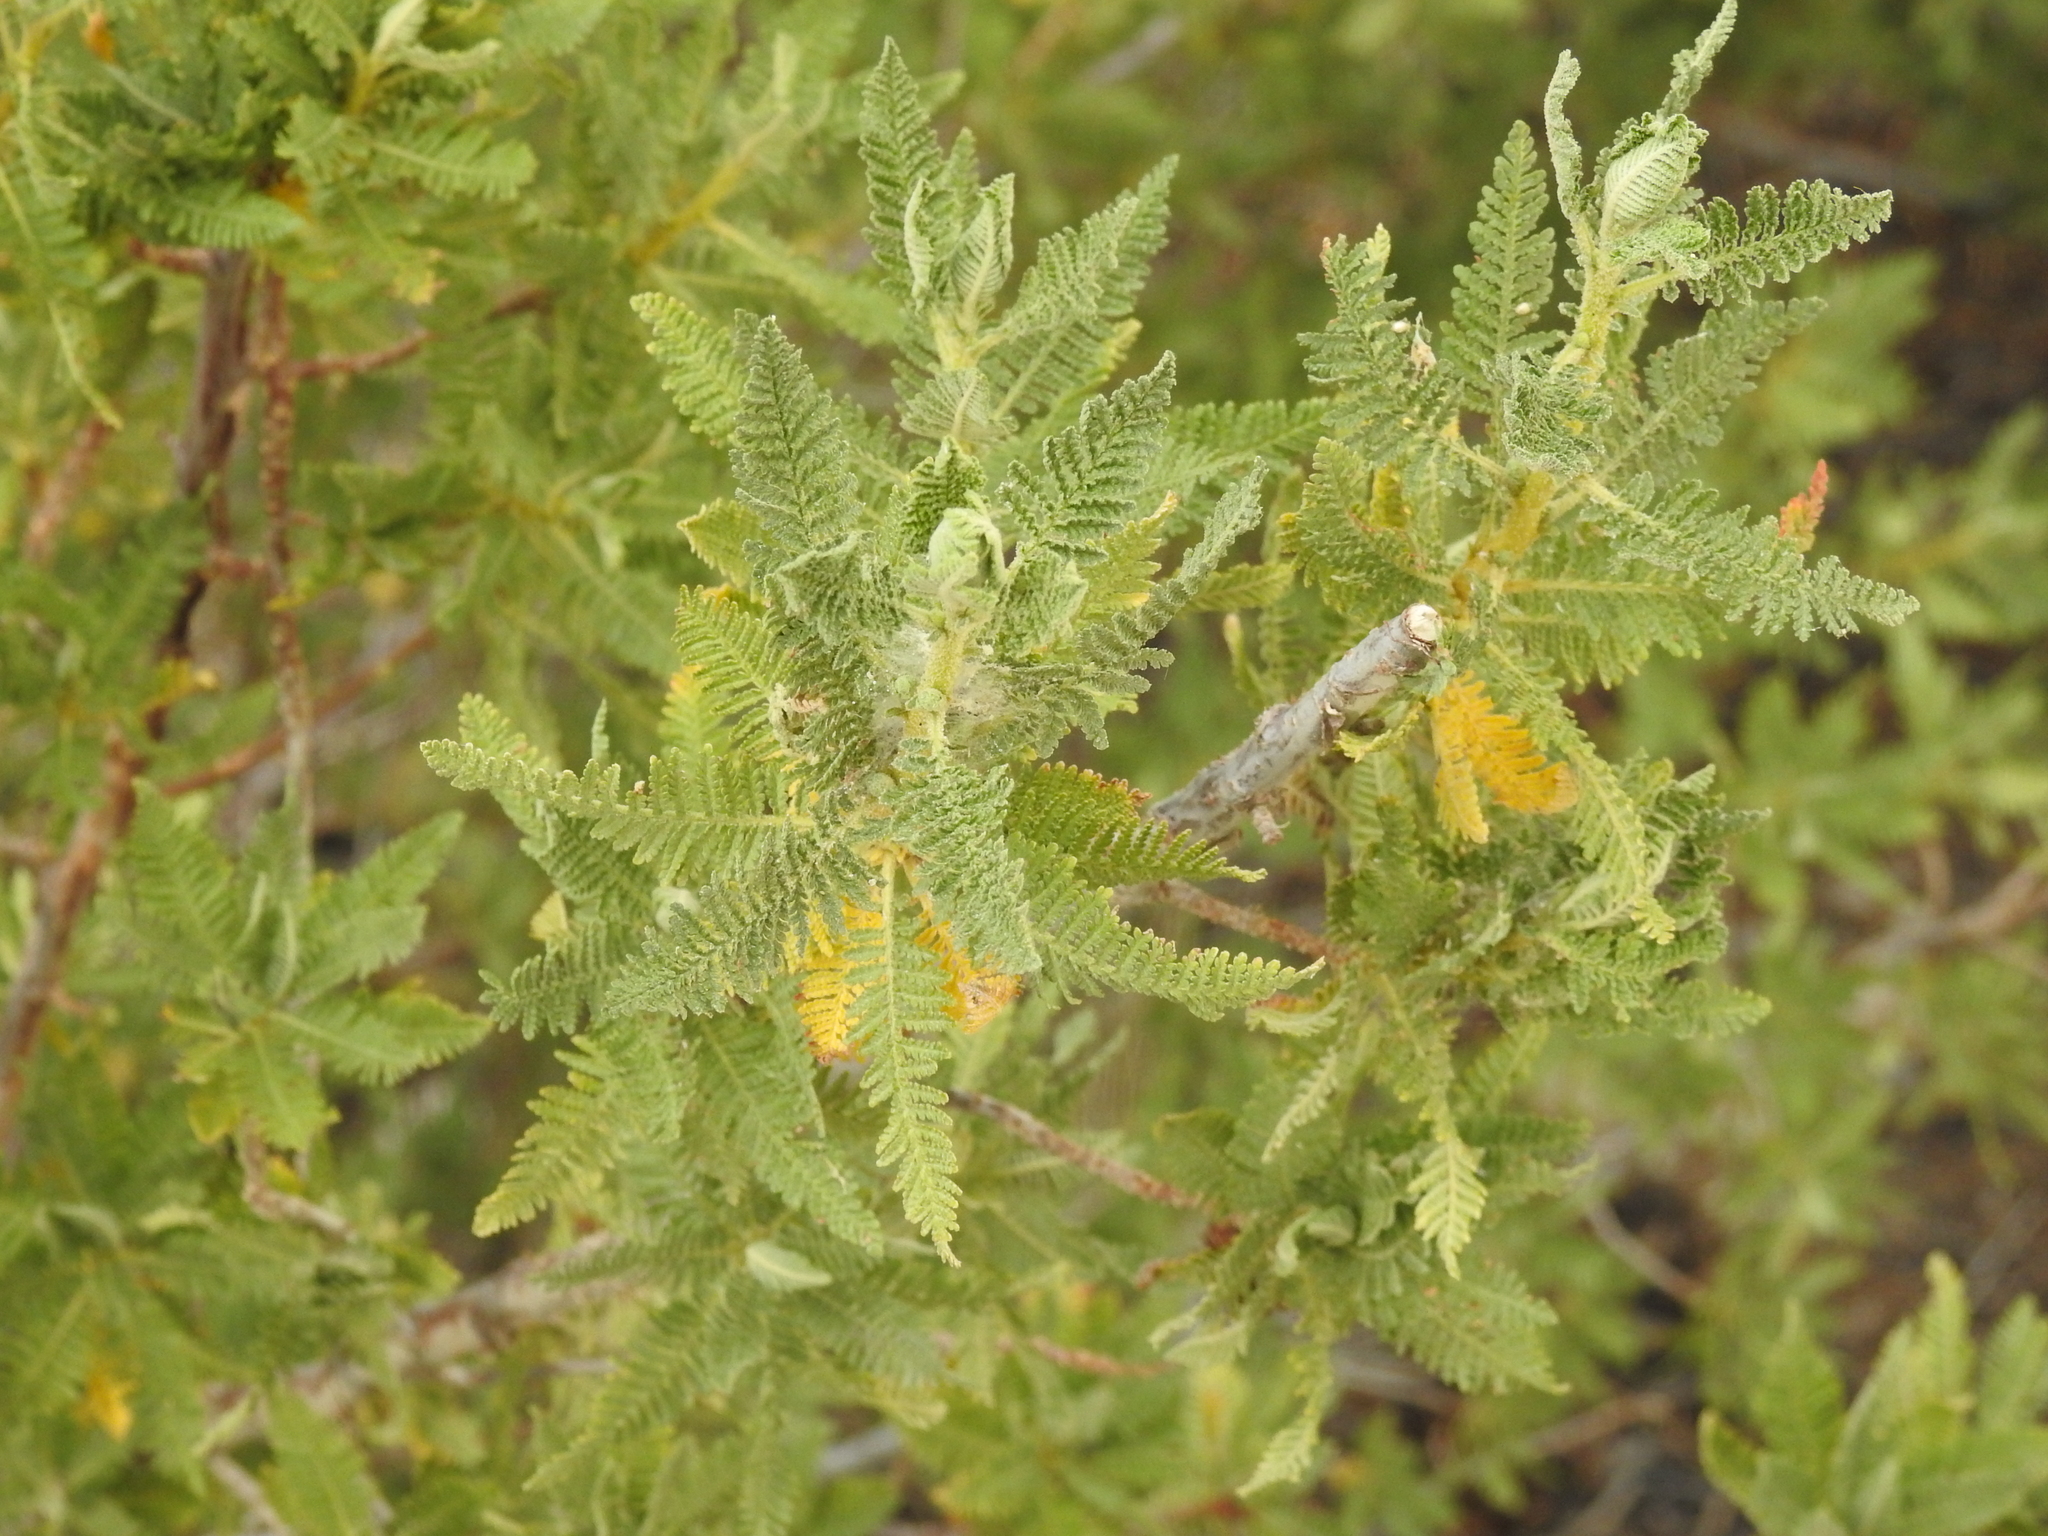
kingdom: Plantae
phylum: Tracheophyta
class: Magnoliopsida
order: Rosales
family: Rosaceae
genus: Chamaebatiaria
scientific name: Chamaebatiaria millefolium
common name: Fernbush
